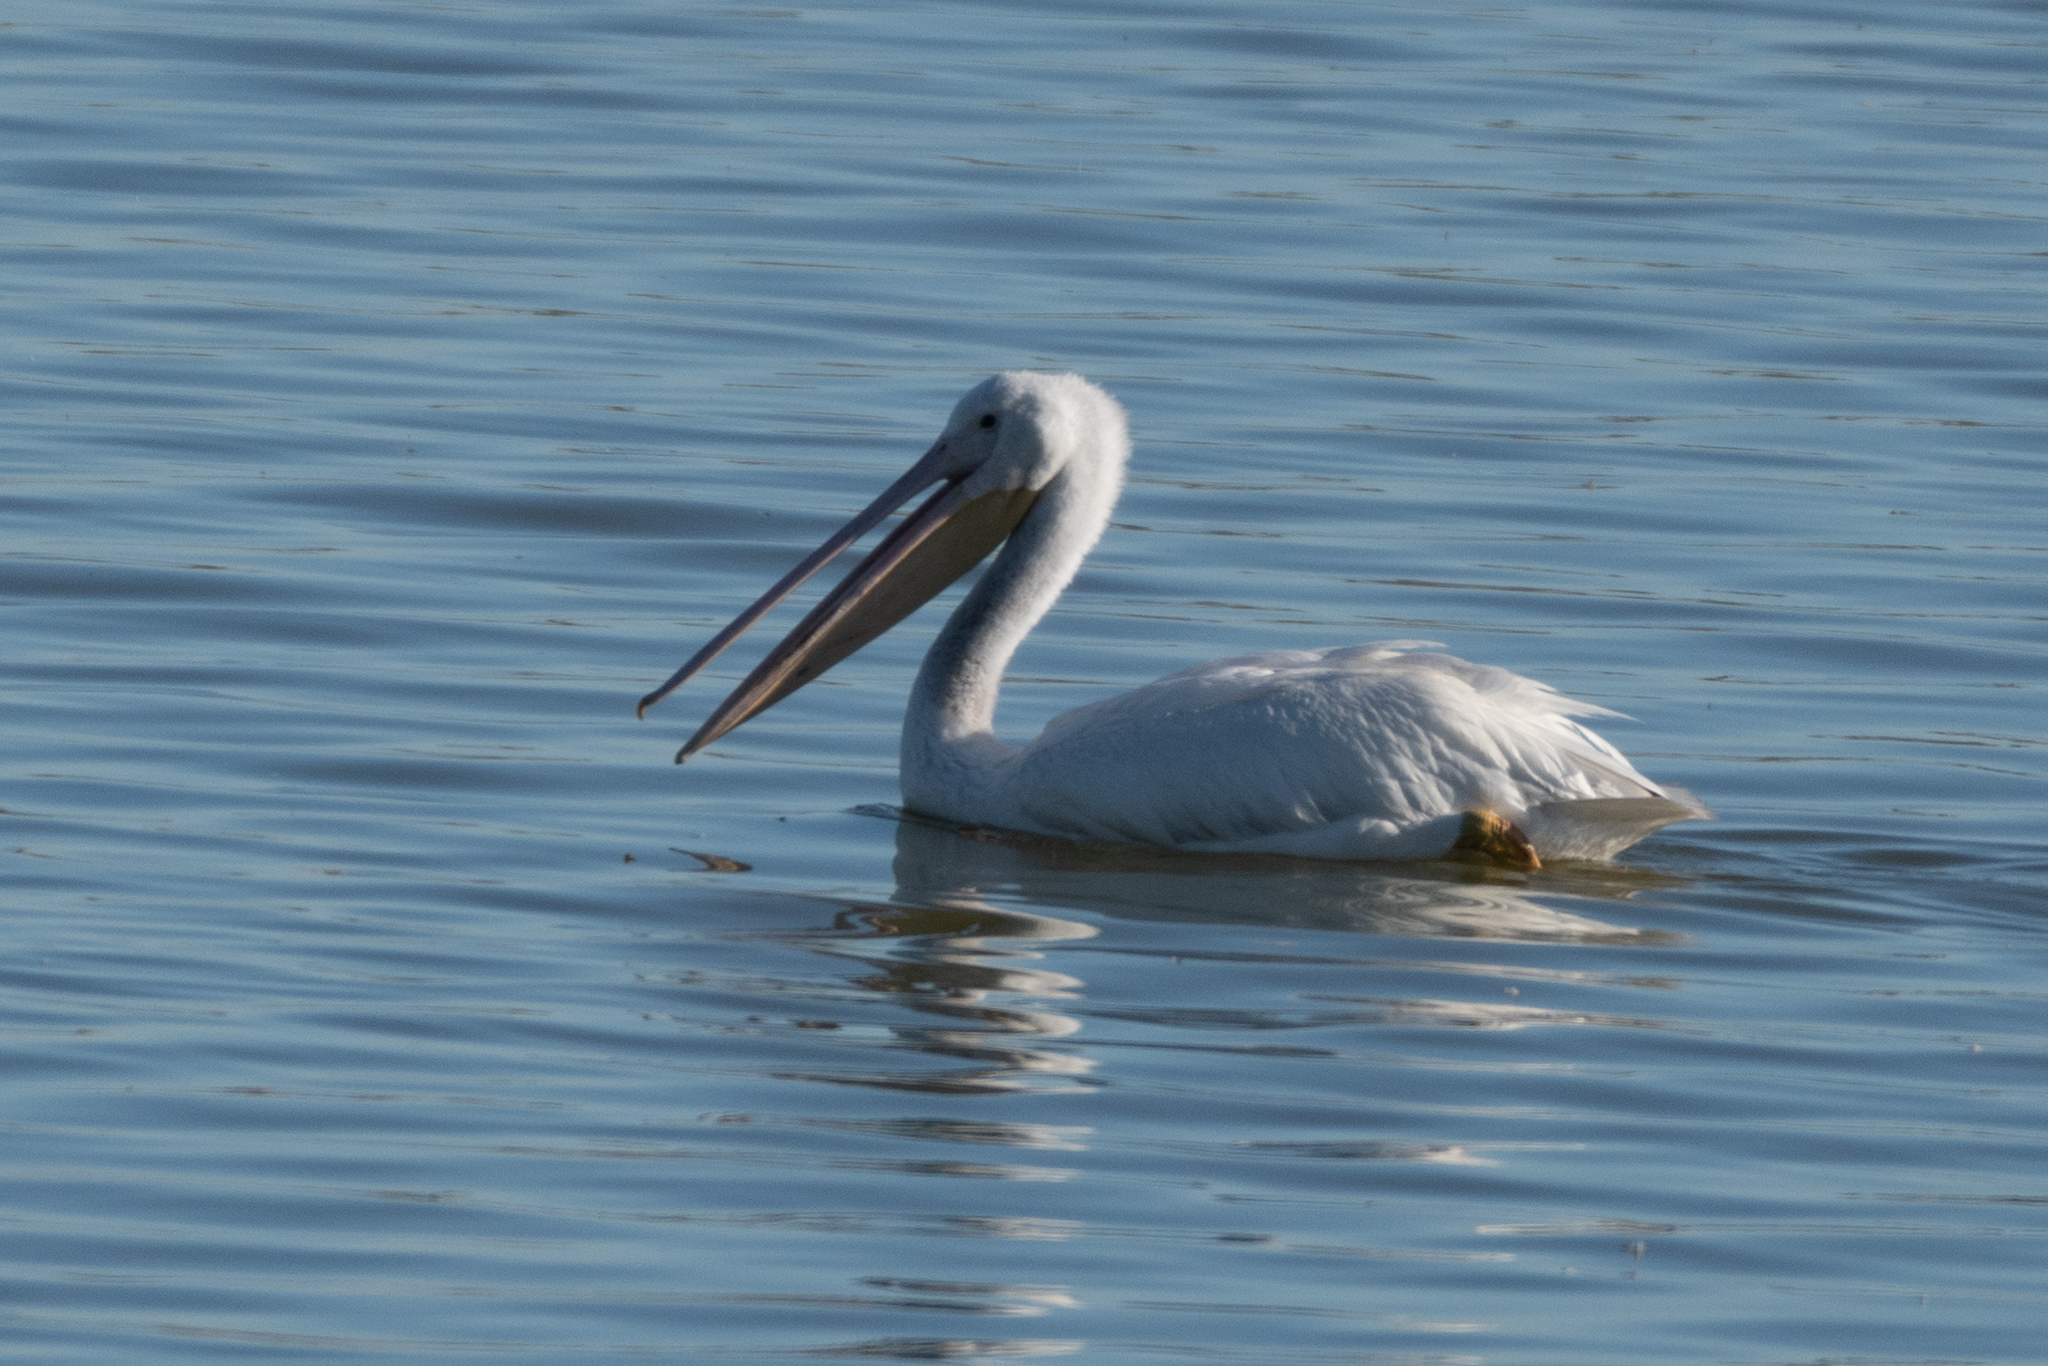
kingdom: Animalia
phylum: Chordata
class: Aves
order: Pelecaniformes
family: Pelecanidae
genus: Pelecanus
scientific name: Pelecanus erythrorhynchos
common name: American white pelican
